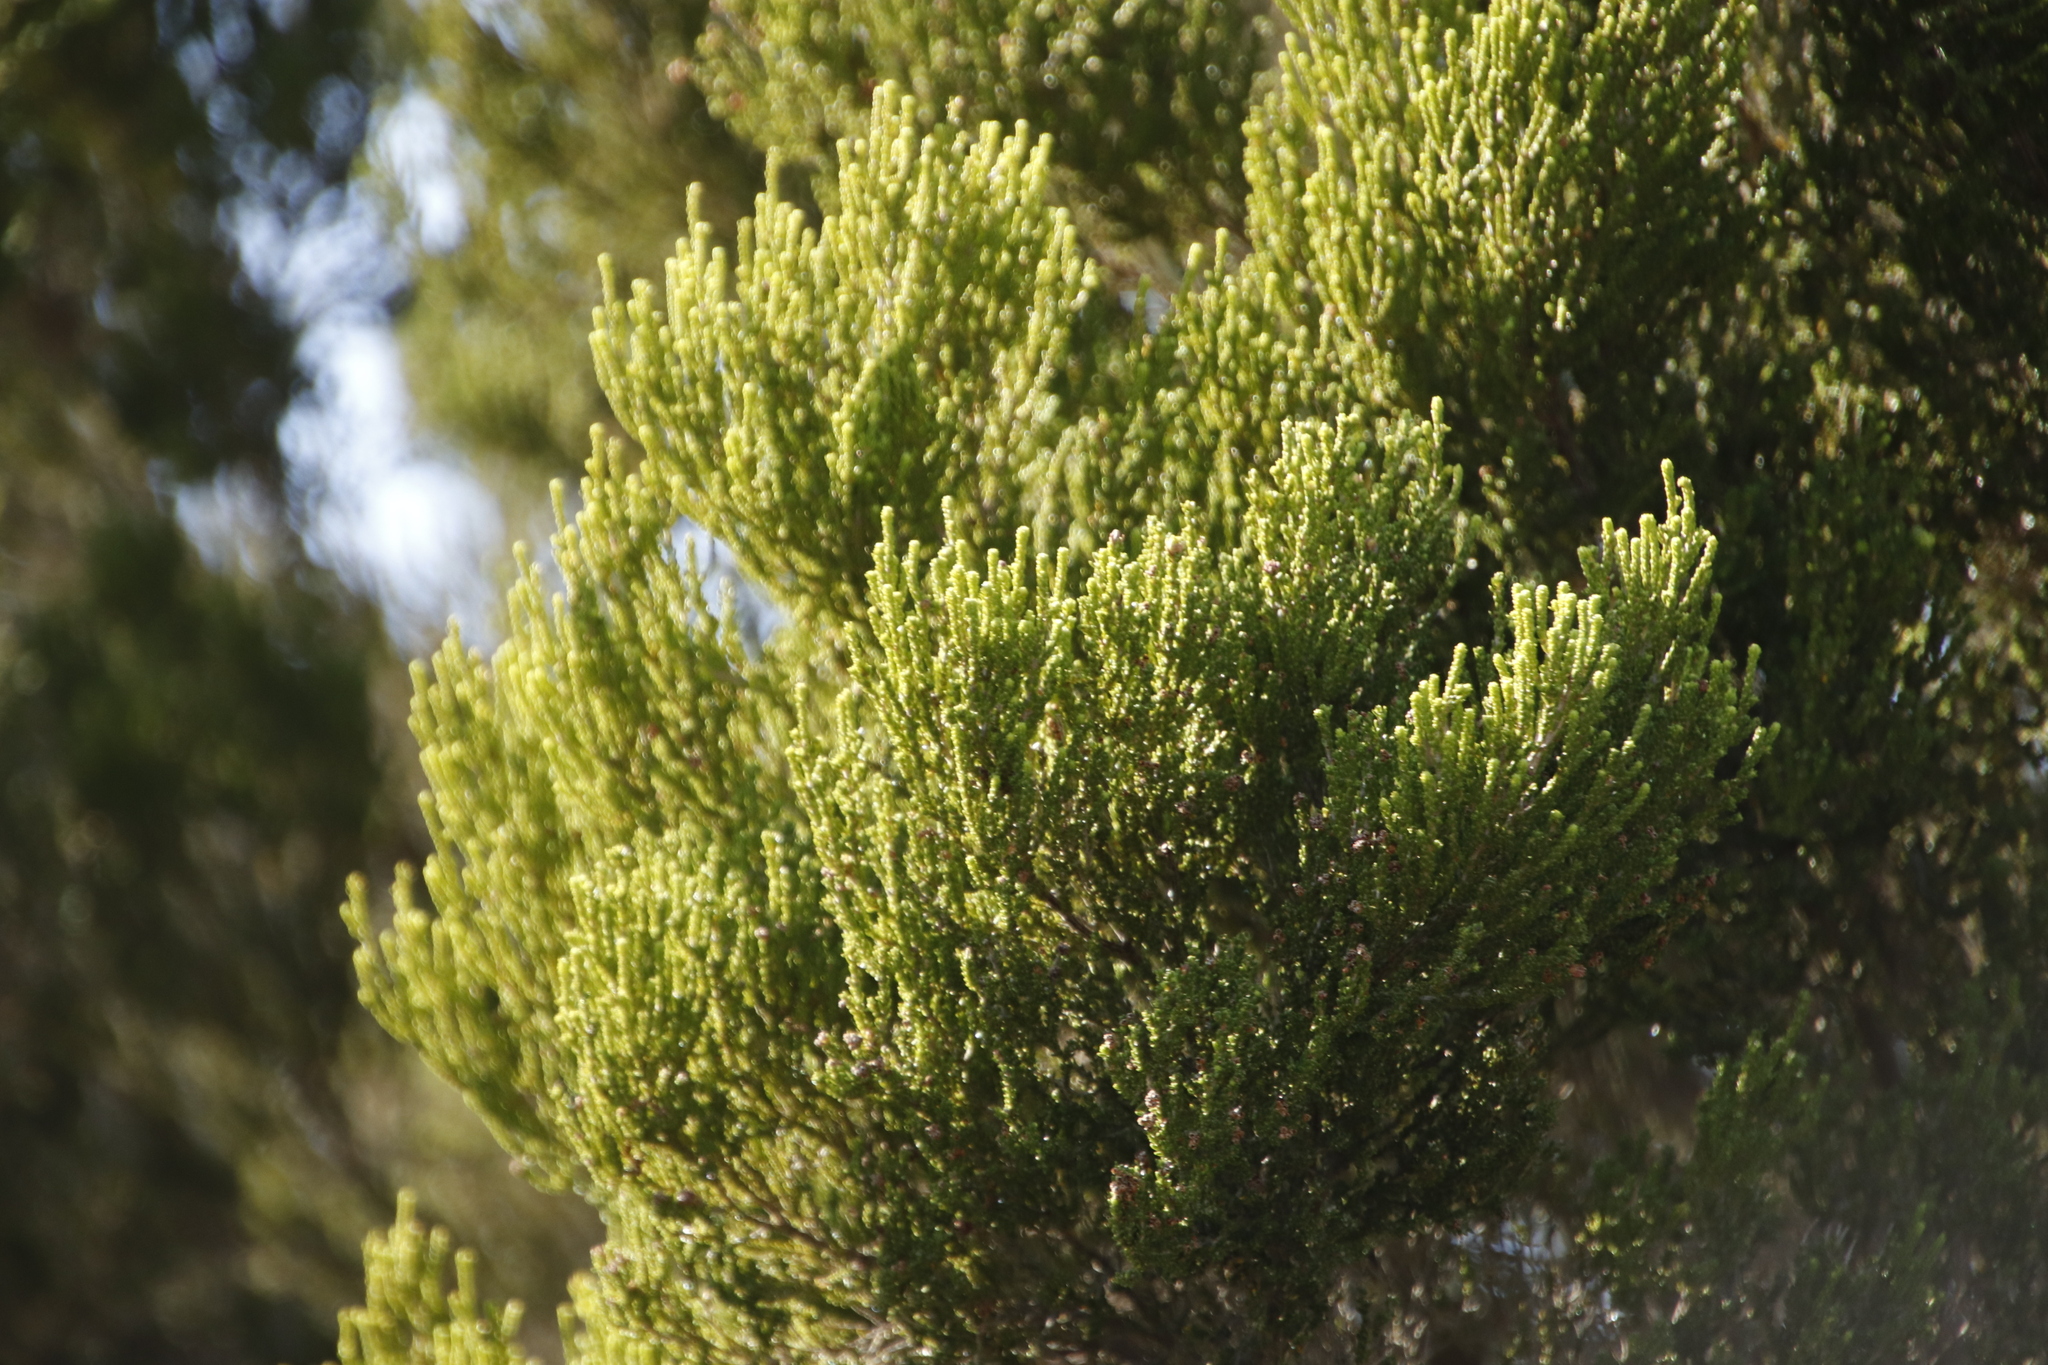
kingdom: Plantae
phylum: Tracheophyta
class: Magnoliopsida
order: Ericales
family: Ericaceae
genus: Erica
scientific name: Erica tristis
